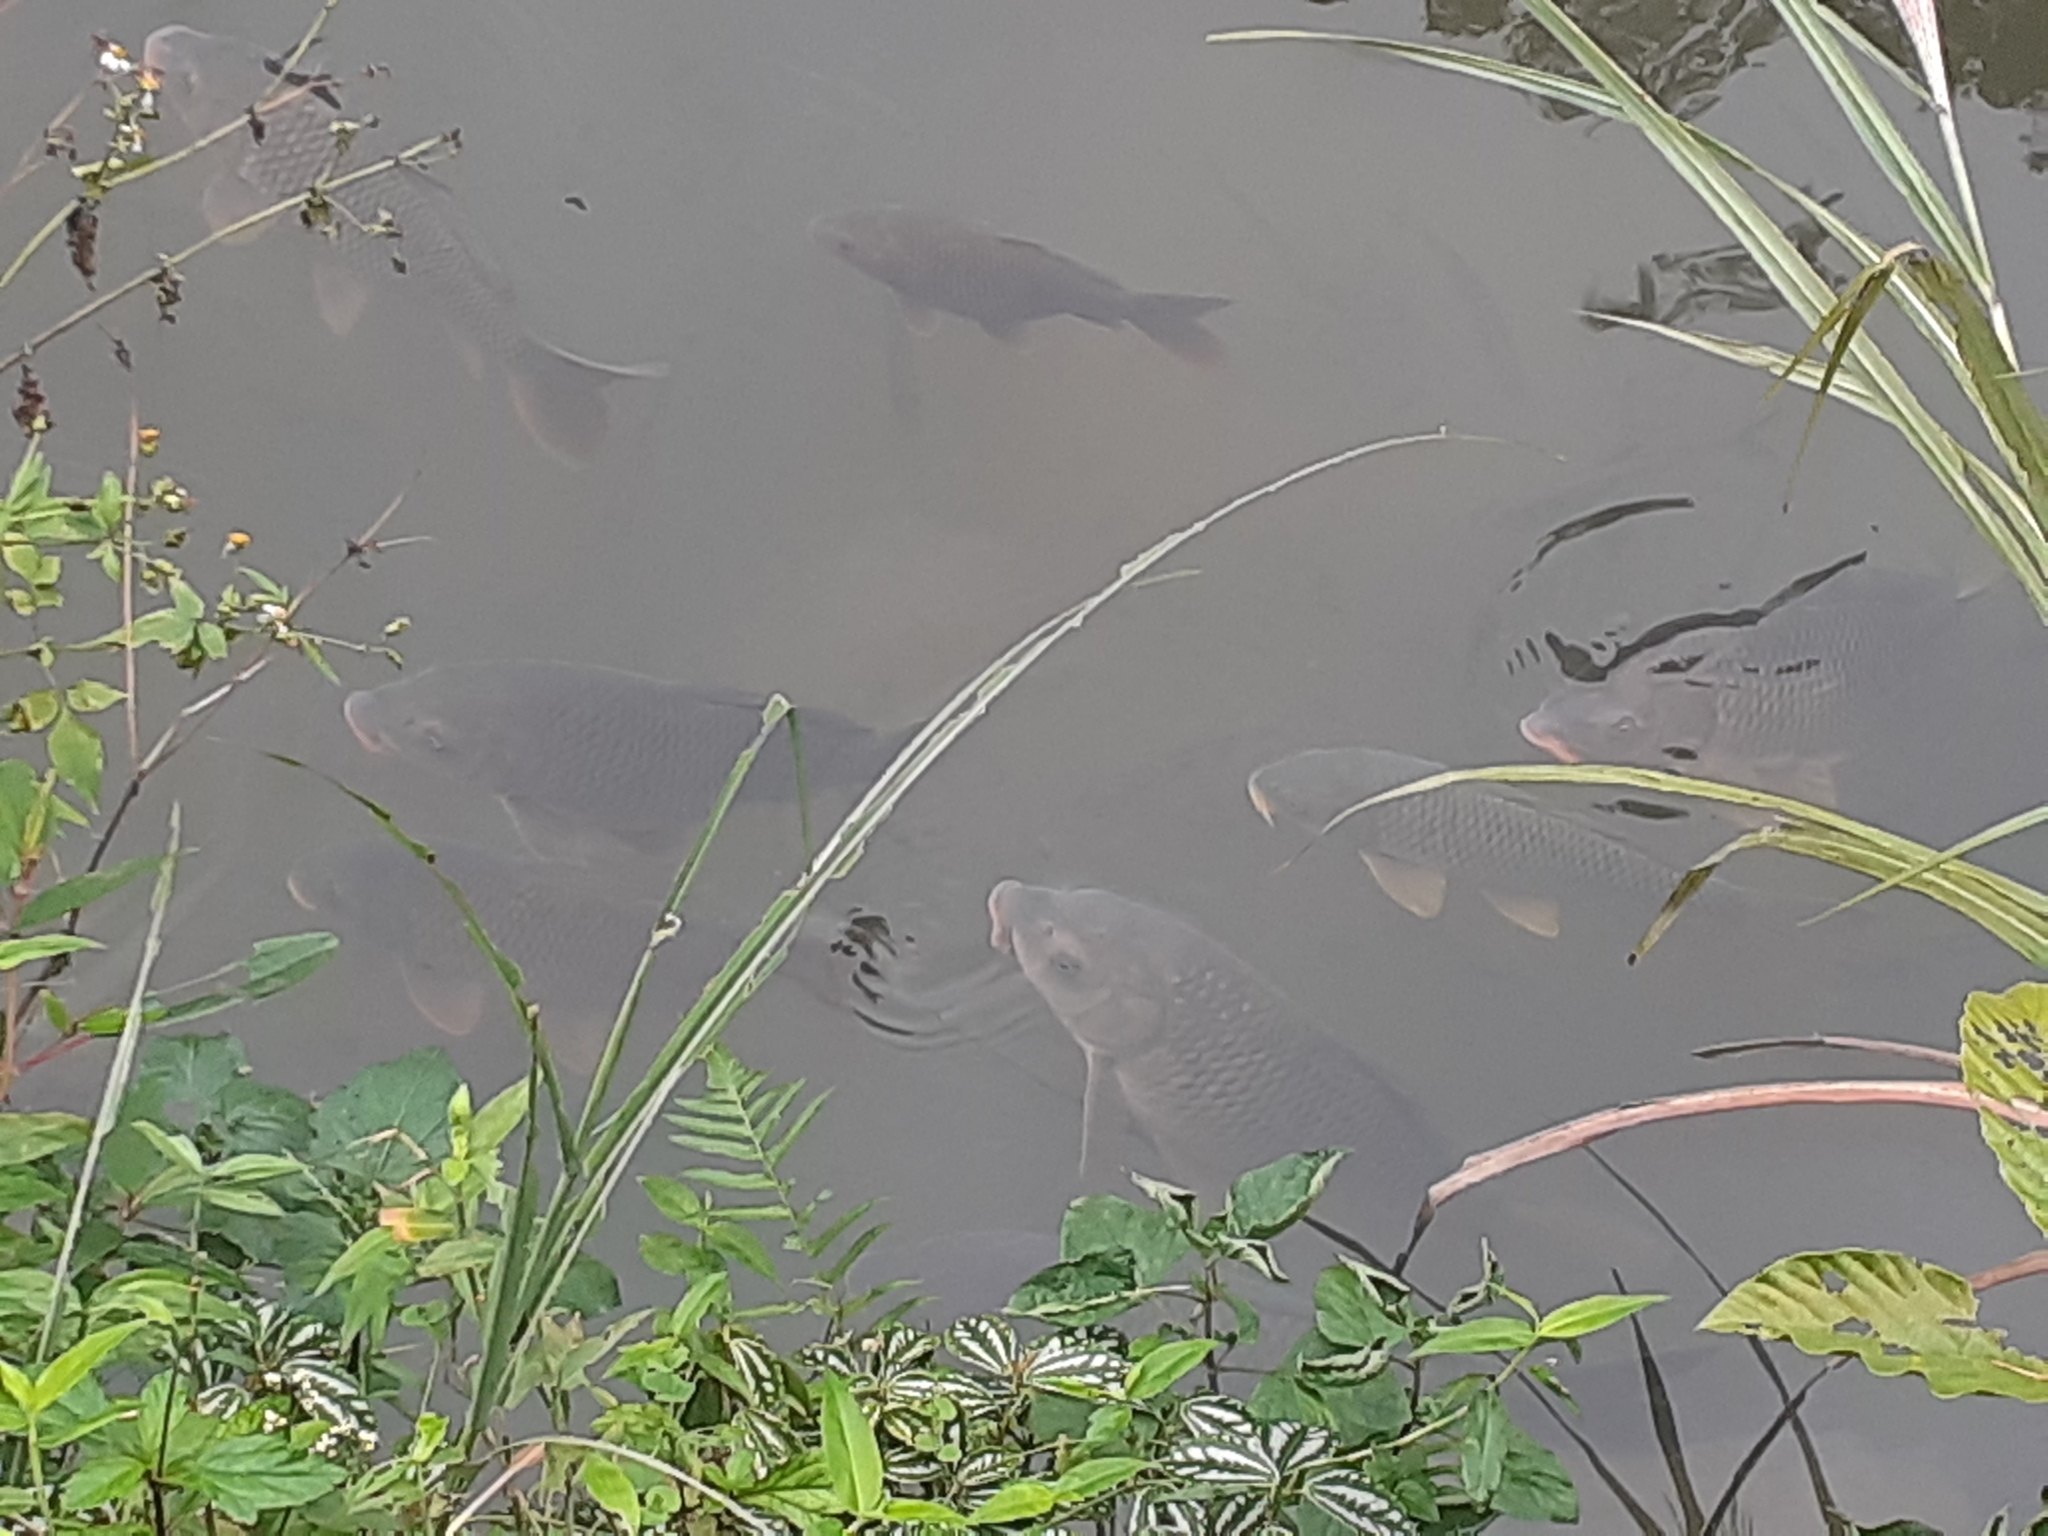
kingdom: Animalia
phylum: Chordata
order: Cypriniformes
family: Cyprinidae
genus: Cyprinus
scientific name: Cyprinus carpio
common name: Common carp
